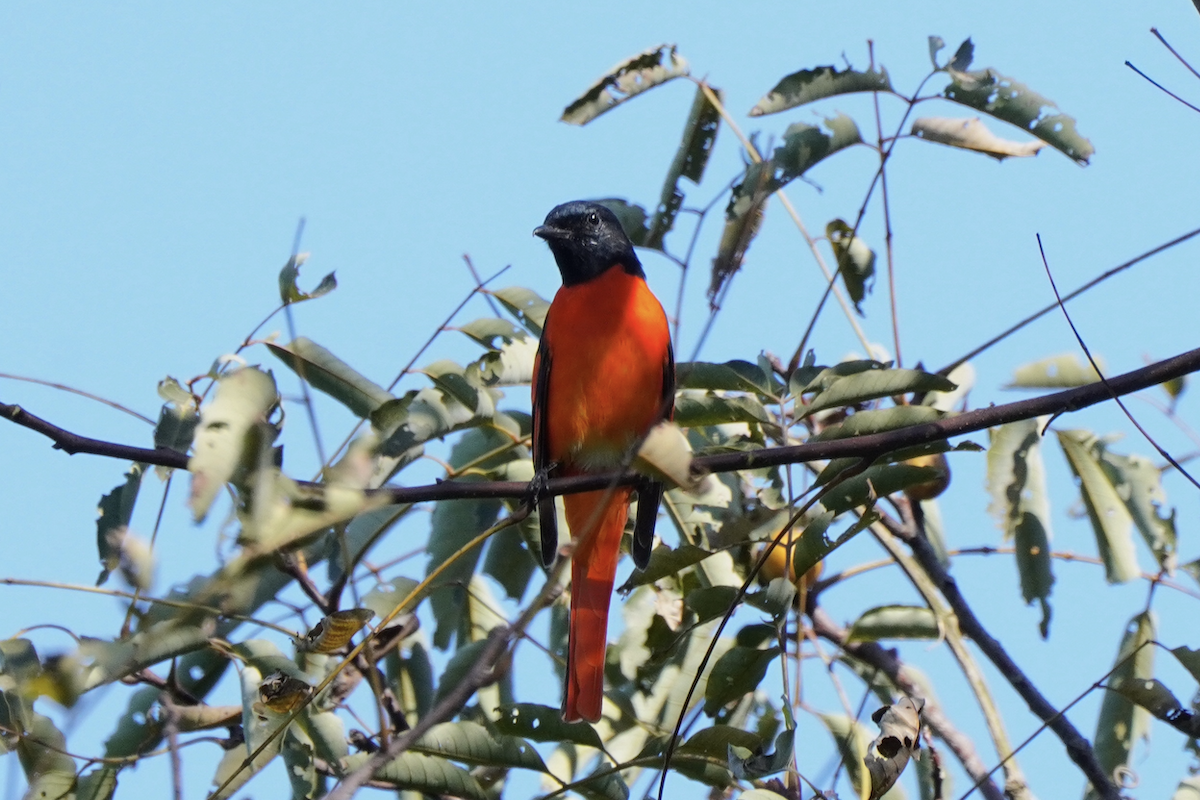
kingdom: Animalia
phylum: Chordata
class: Aves
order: Passeriformes
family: Campephagidae
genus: Pericrocotus
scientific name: Pericrocotus speciosus
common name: Scarlet minivet
